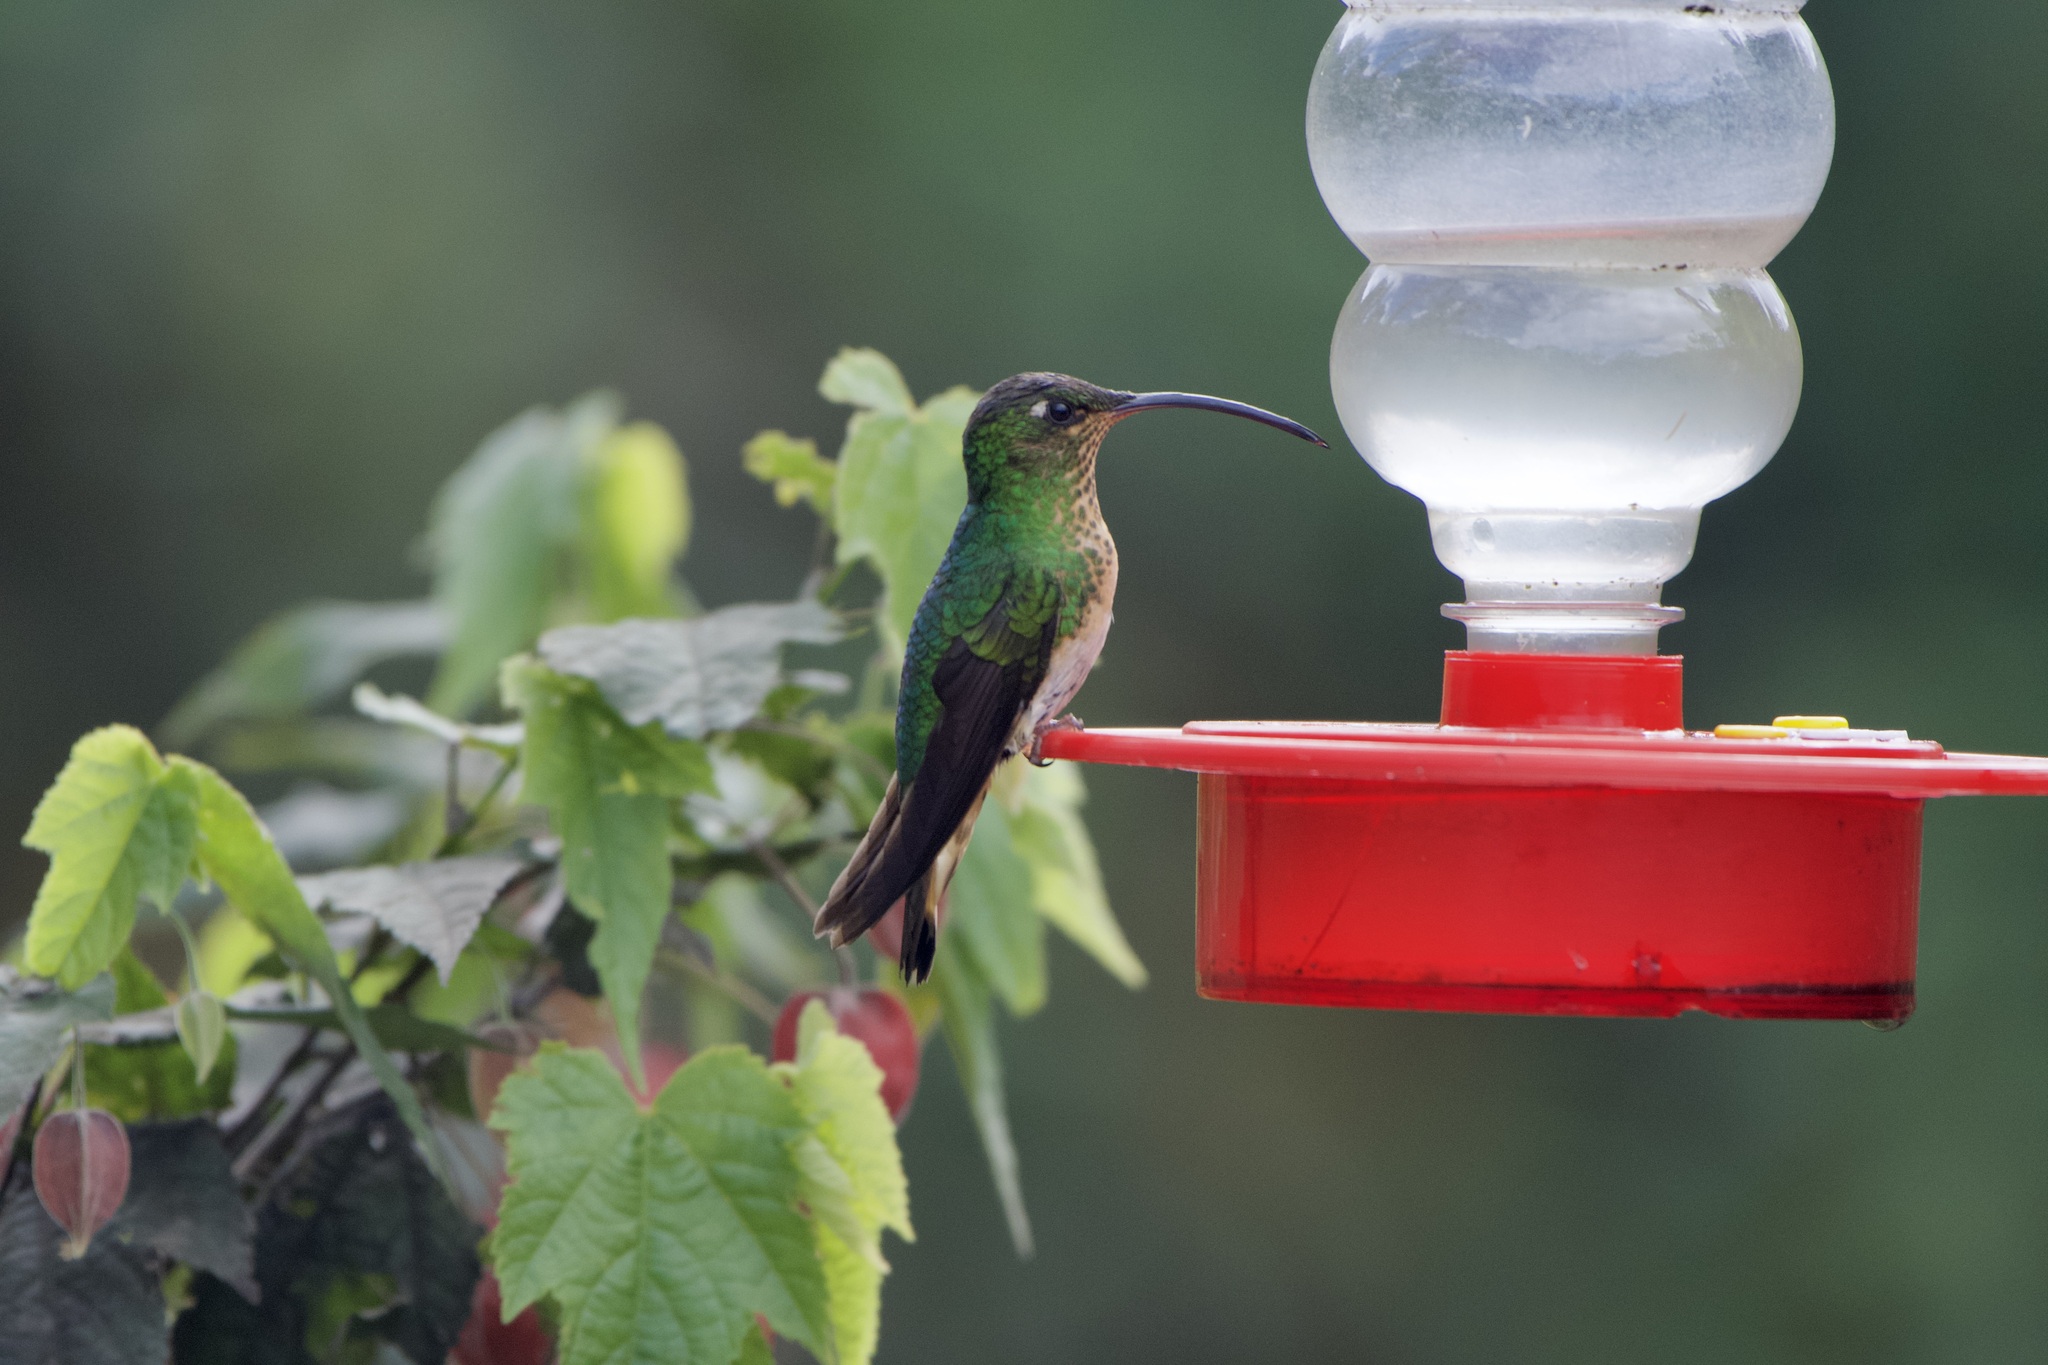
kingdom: Animalia
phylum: Chordata
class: Aves
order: Apodiformes
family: Trochilidae
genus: Lafresnaya
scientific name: Lafresnaya lafresnayi
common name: Mountain velvetbreast
